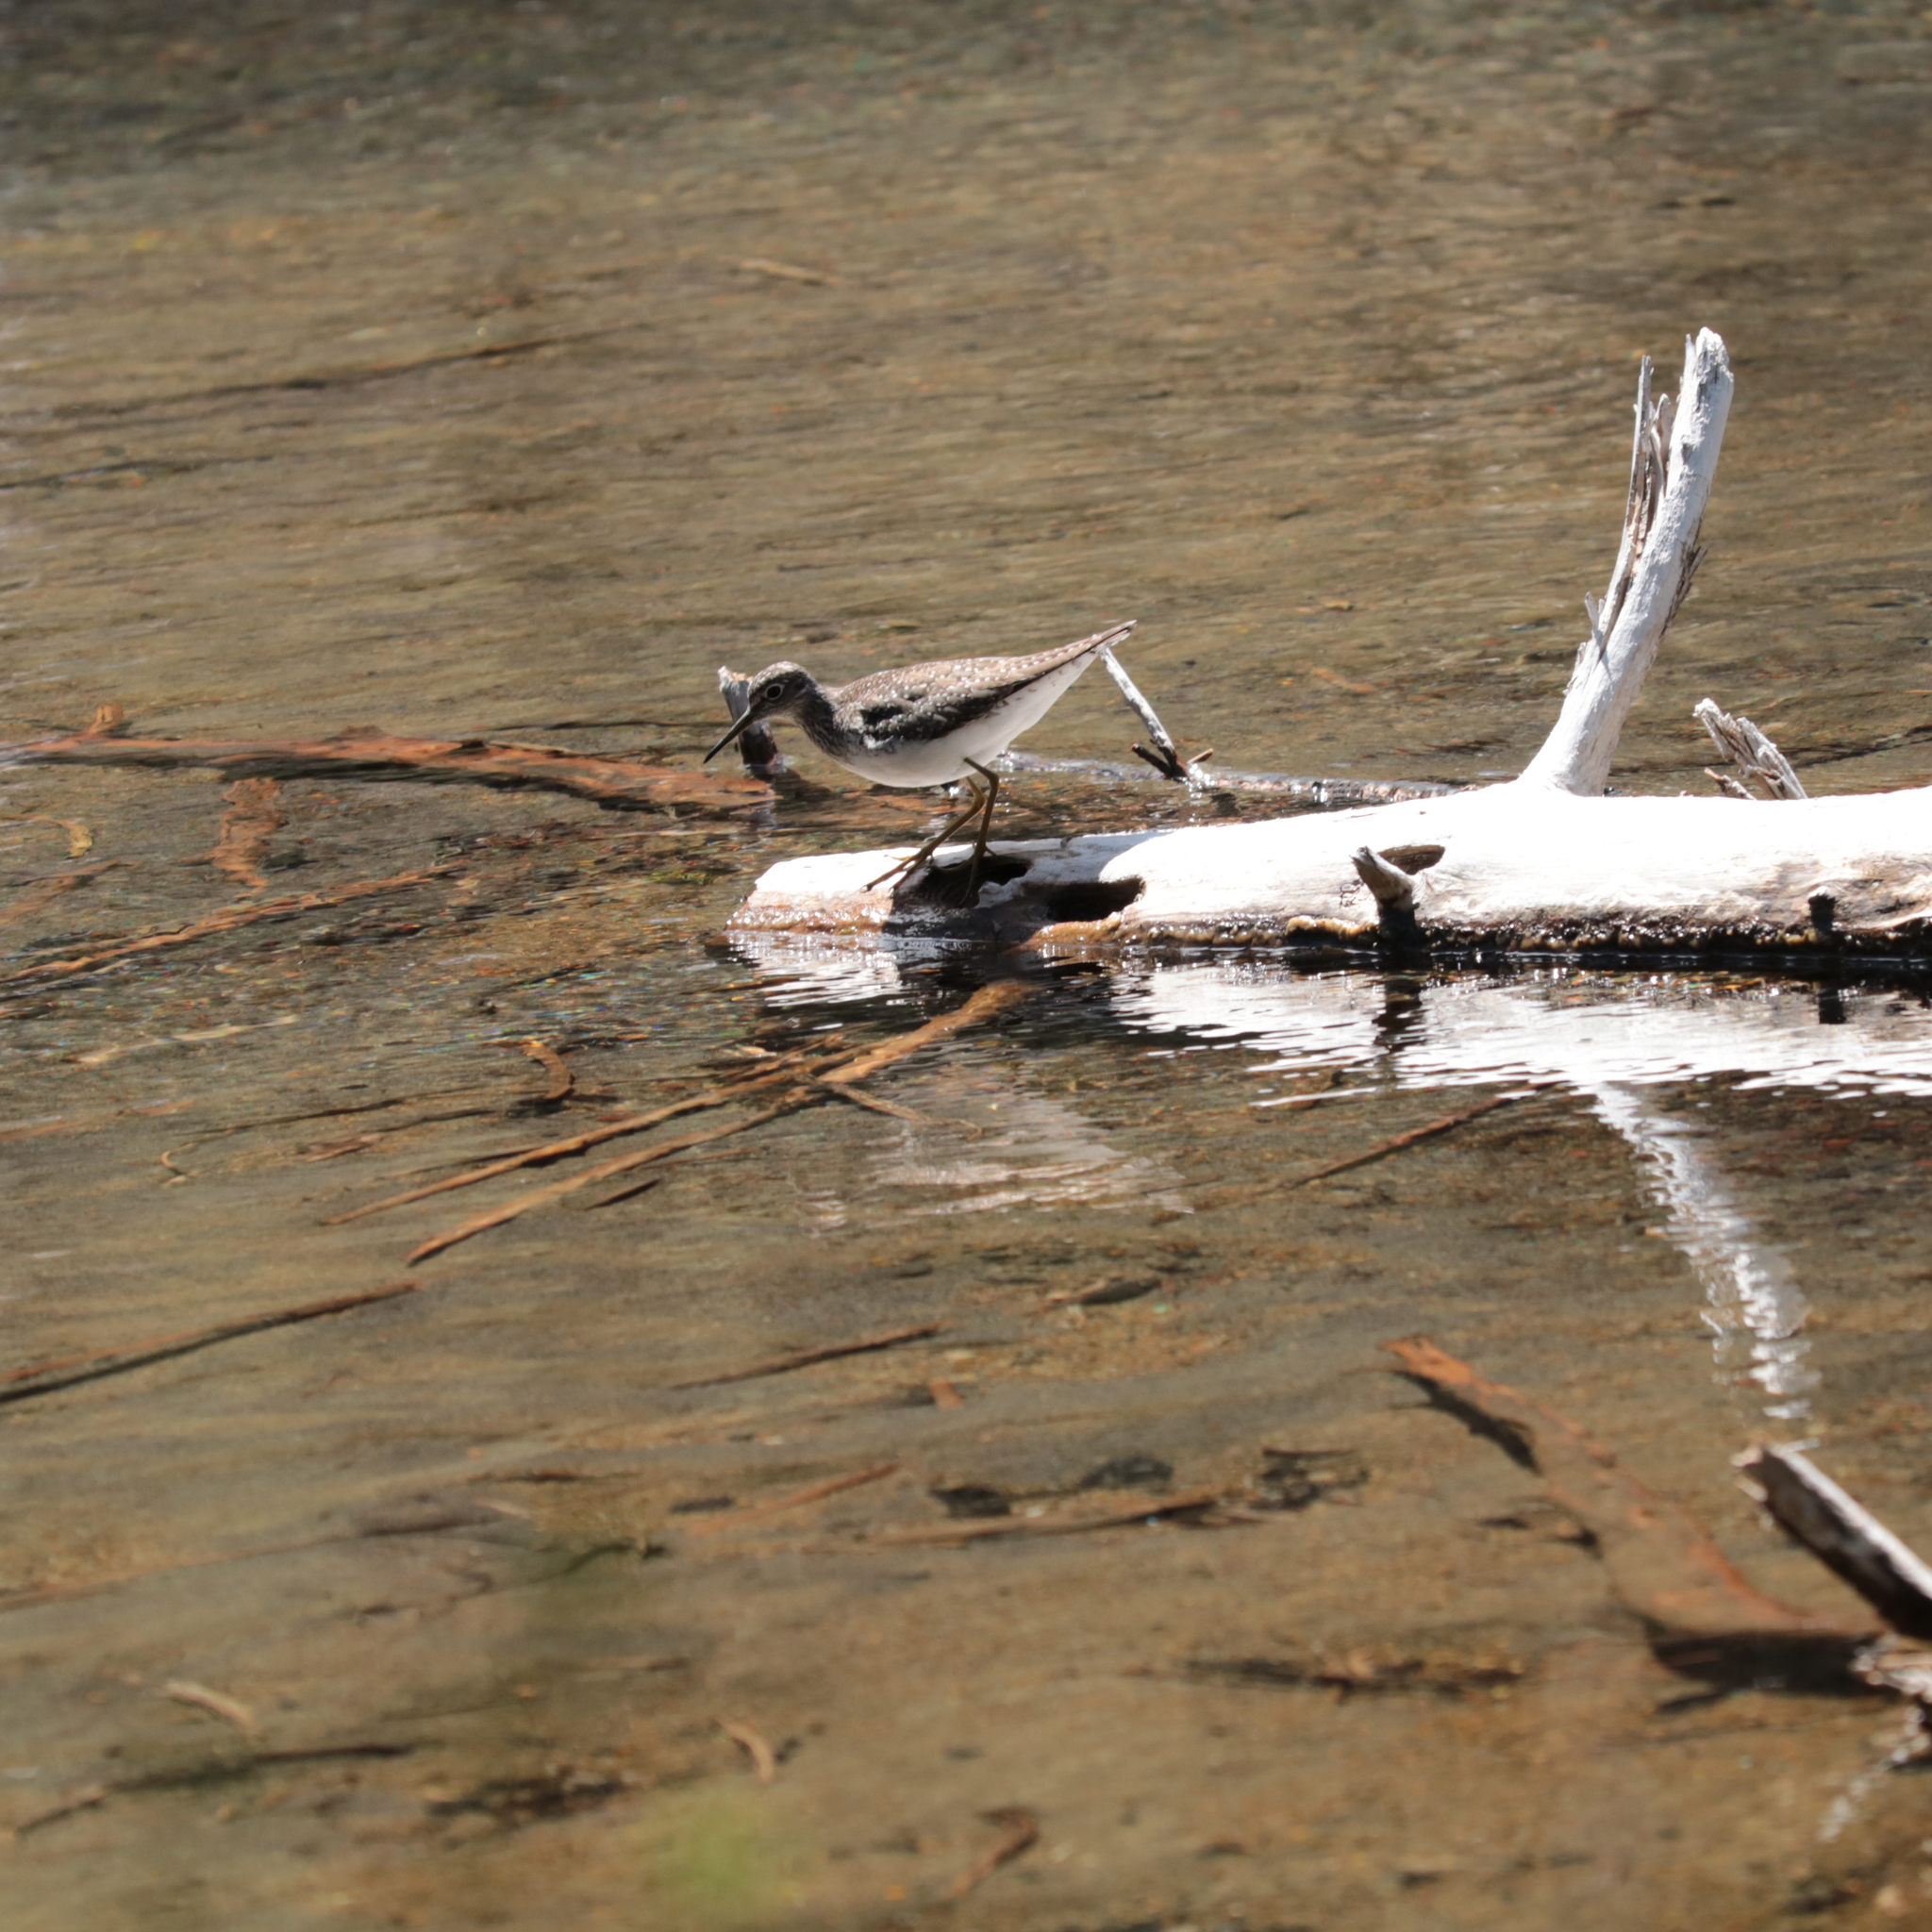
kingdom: Animalia
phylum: Chordata
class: Aves
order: Charadriiformes
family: Scolopacidae
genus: Tringa
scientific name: Tringa solitaria
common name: Solitary sandpiper
